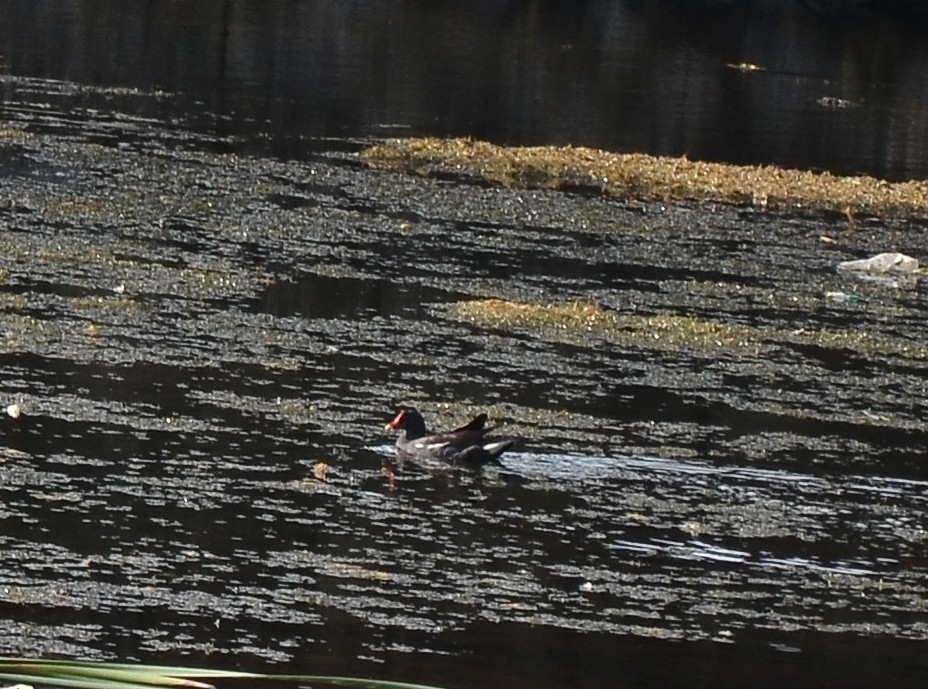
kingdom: Animalia
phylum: Chordata
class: Aves
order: Gruiformes
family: Rallidae
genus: Gallinula
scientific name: Gallinula chloropus
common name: Common moorhen
